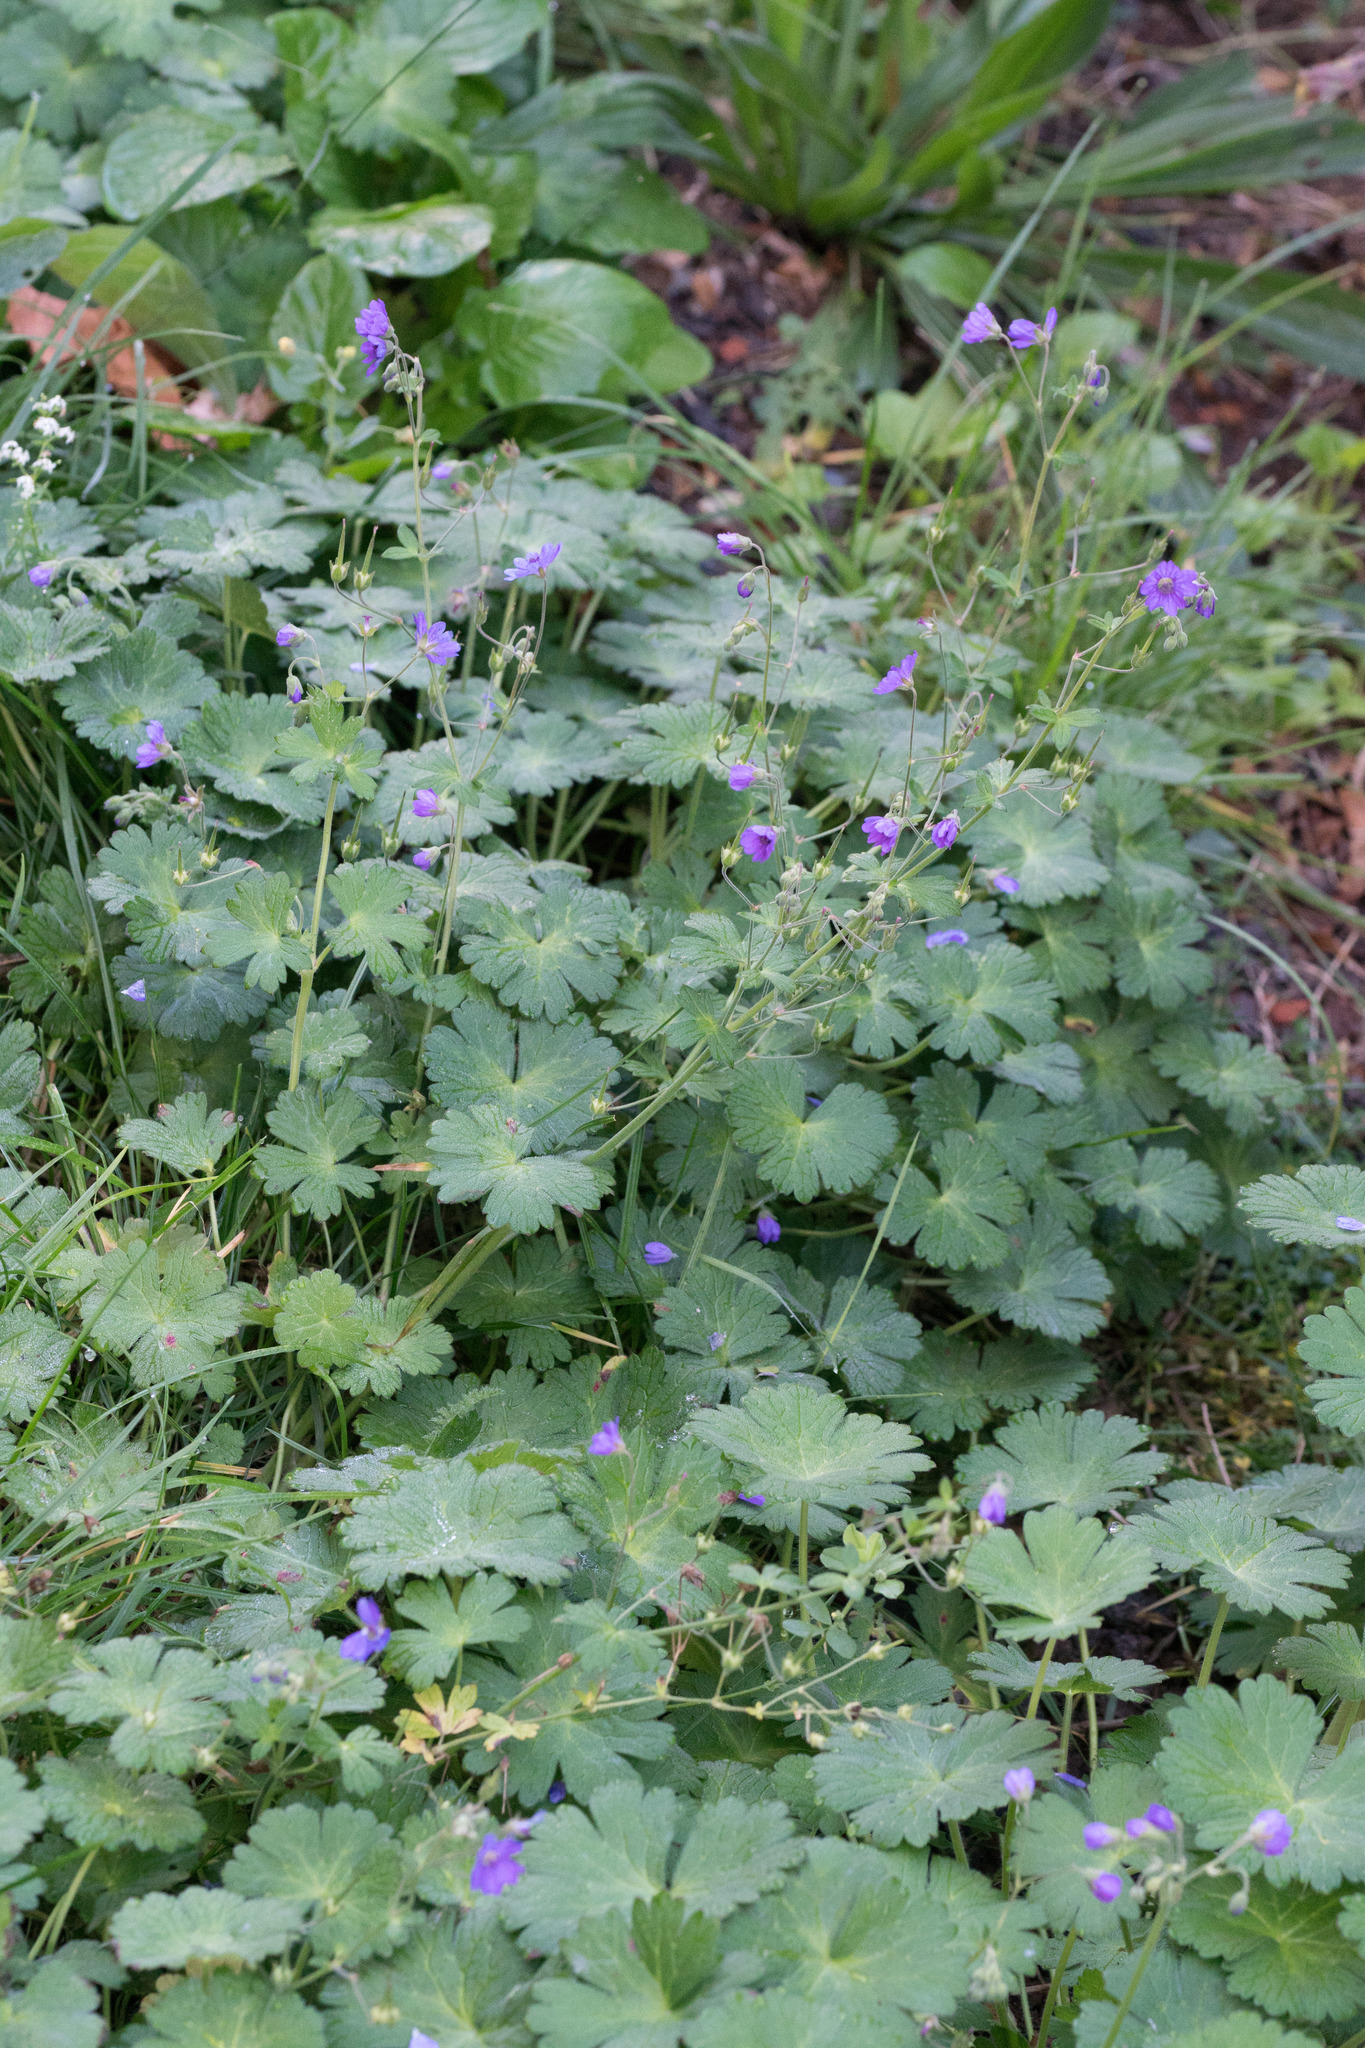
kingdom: Plantae
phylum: Tracheophyta
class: Magnoliopsida
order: Geraniales
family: Geraniaceae
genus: Geranium
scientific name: Geranium pyrenaicum
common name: Hedgerow crane's-bill
